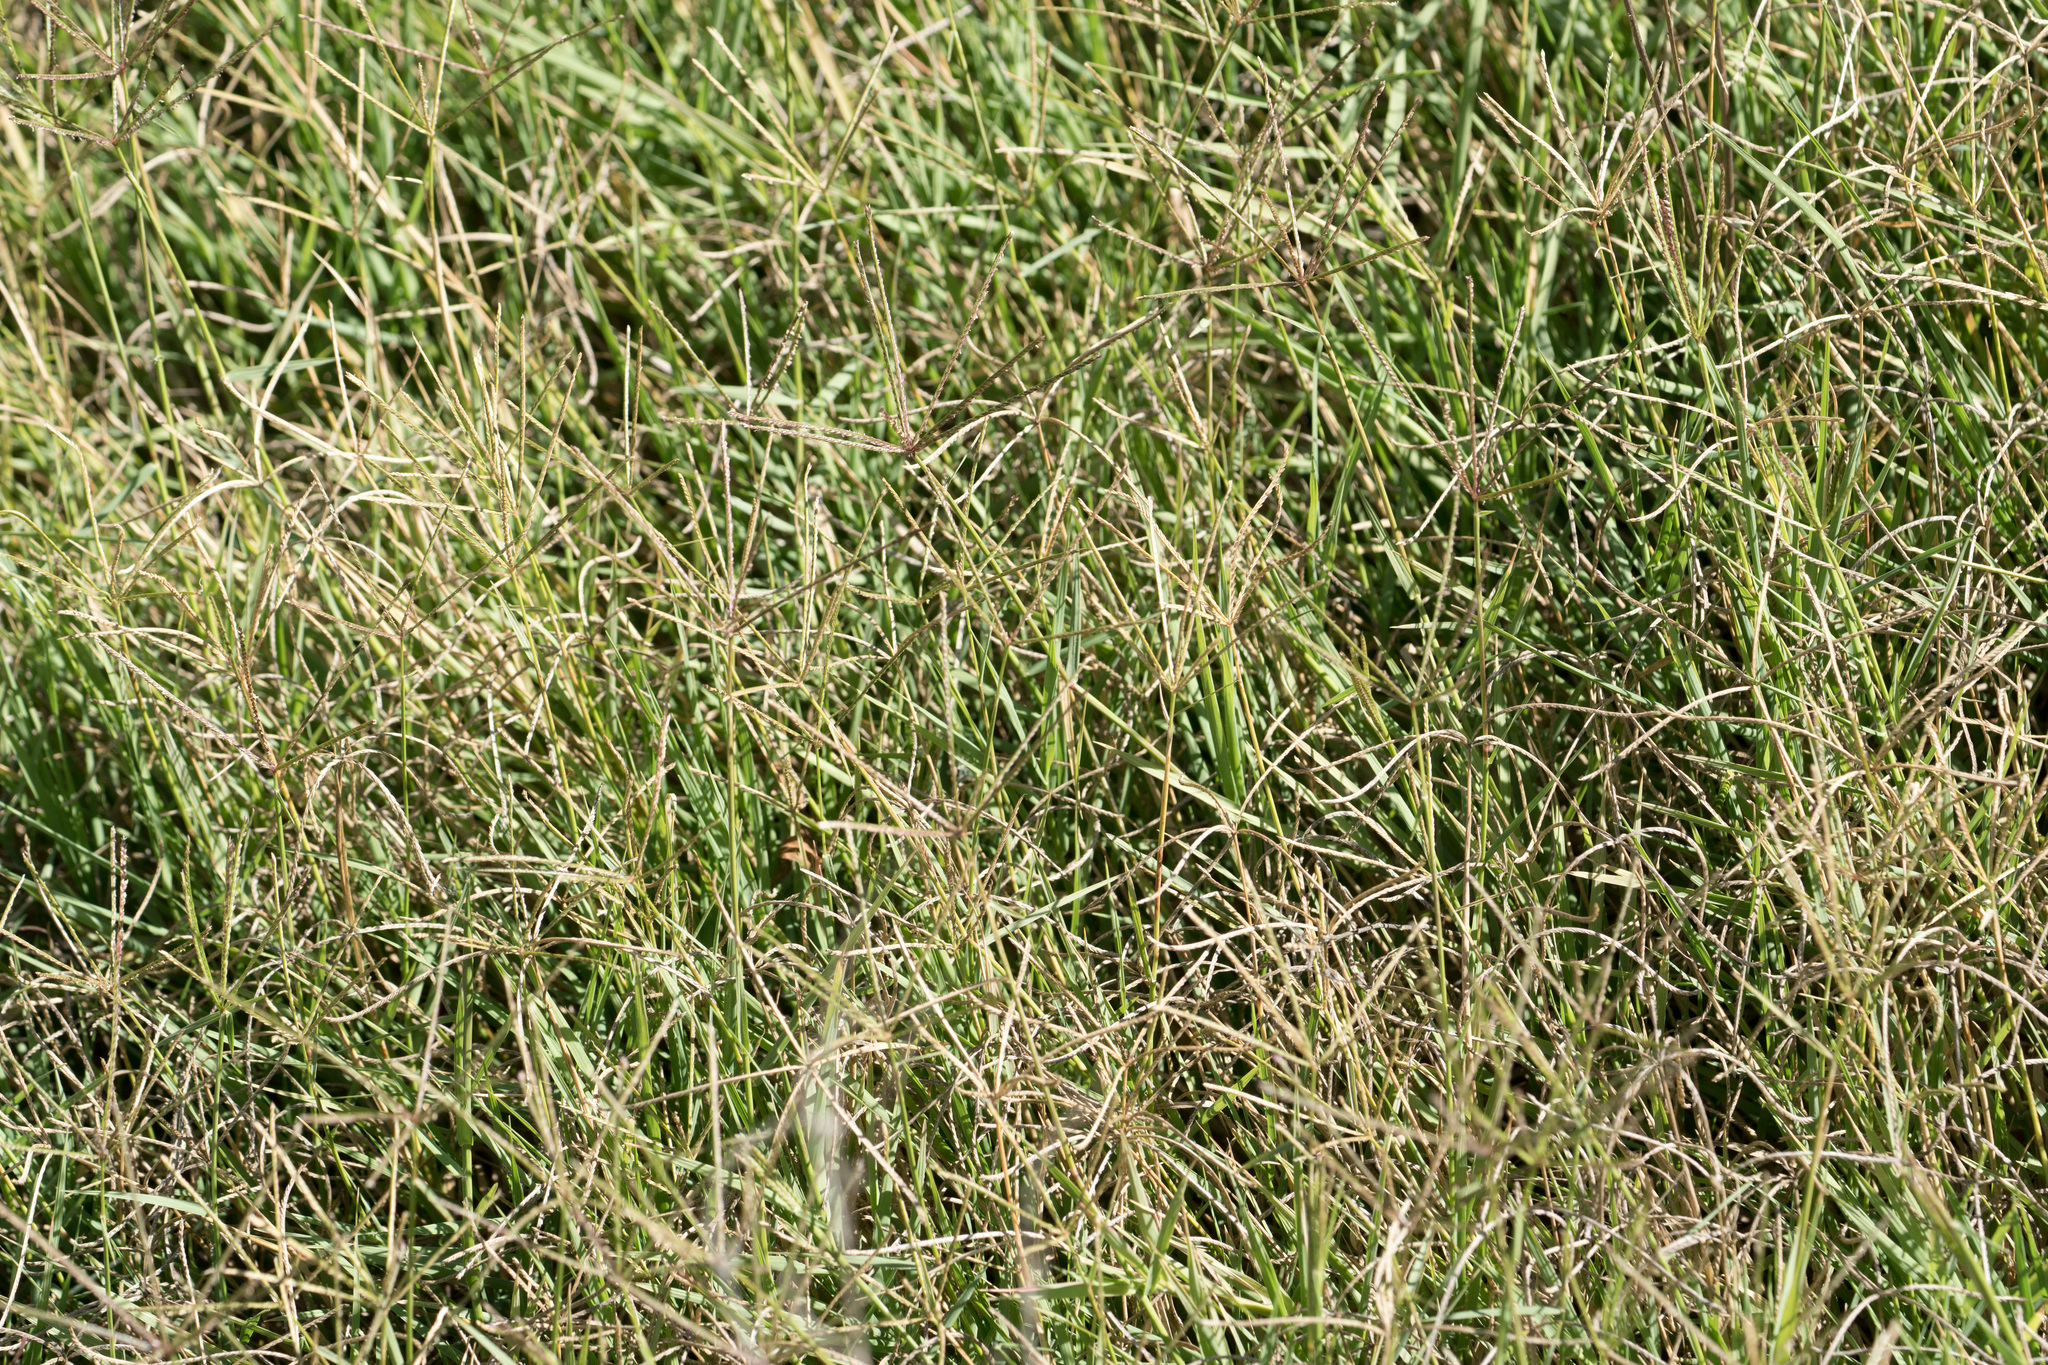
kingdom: Plantae
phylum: Tracheophyta
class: Liliopsida
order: Poales
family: Poaceae
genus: Cynodon
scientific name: Cynodon dactylon
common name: Bermuda grass
